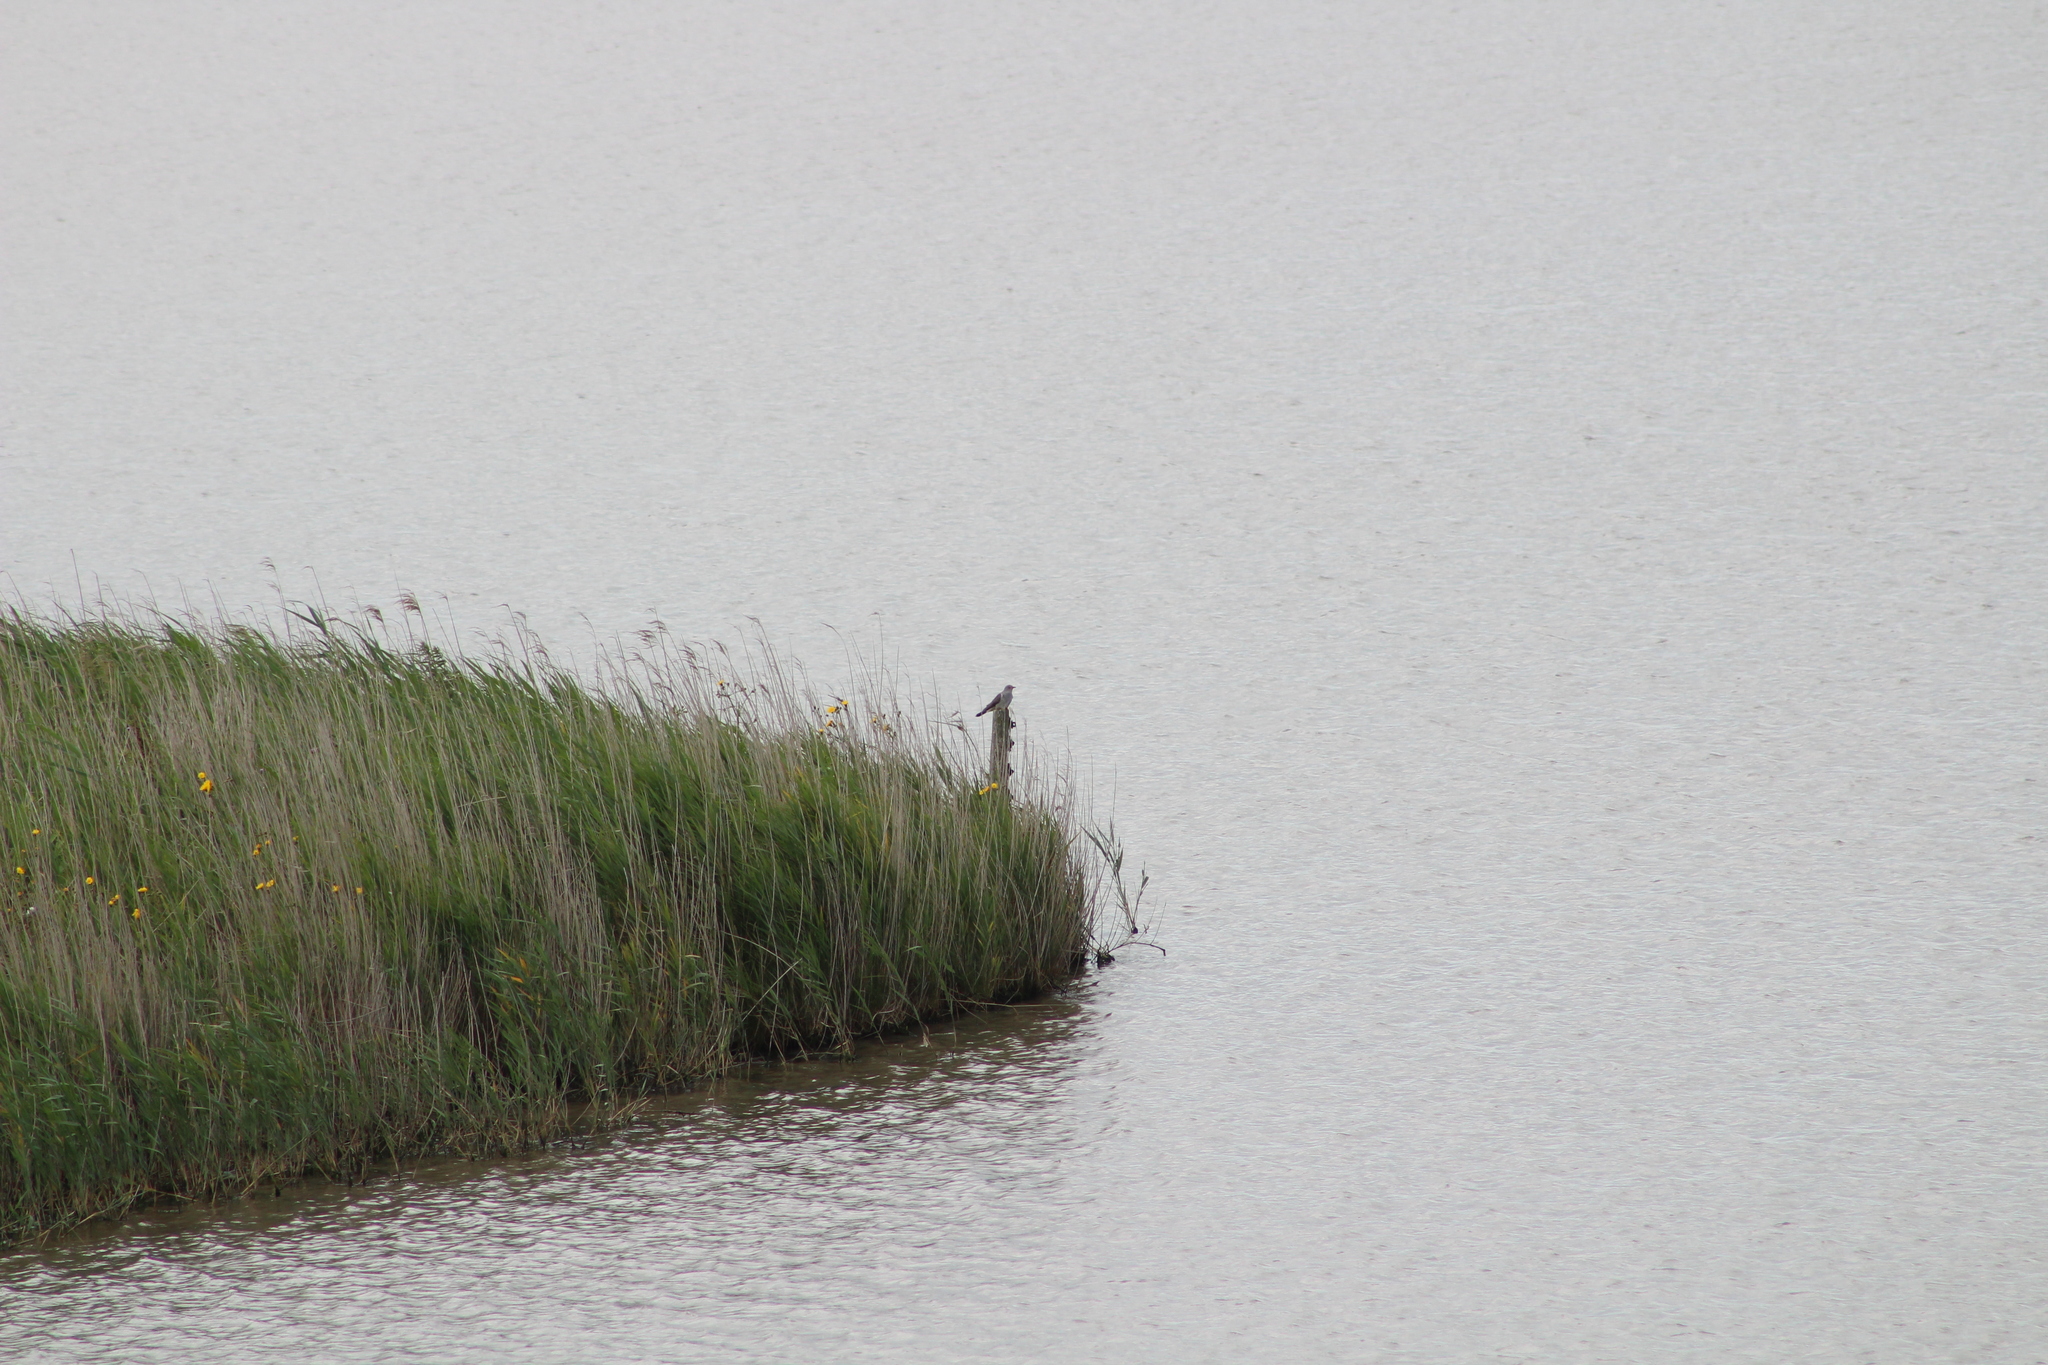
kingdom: Animalia
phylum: Chordata
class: Aves
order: Cuculiformes
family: Cuculidae
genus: Cuculus
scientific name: Cuculus canorus
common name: Common cuckoo
